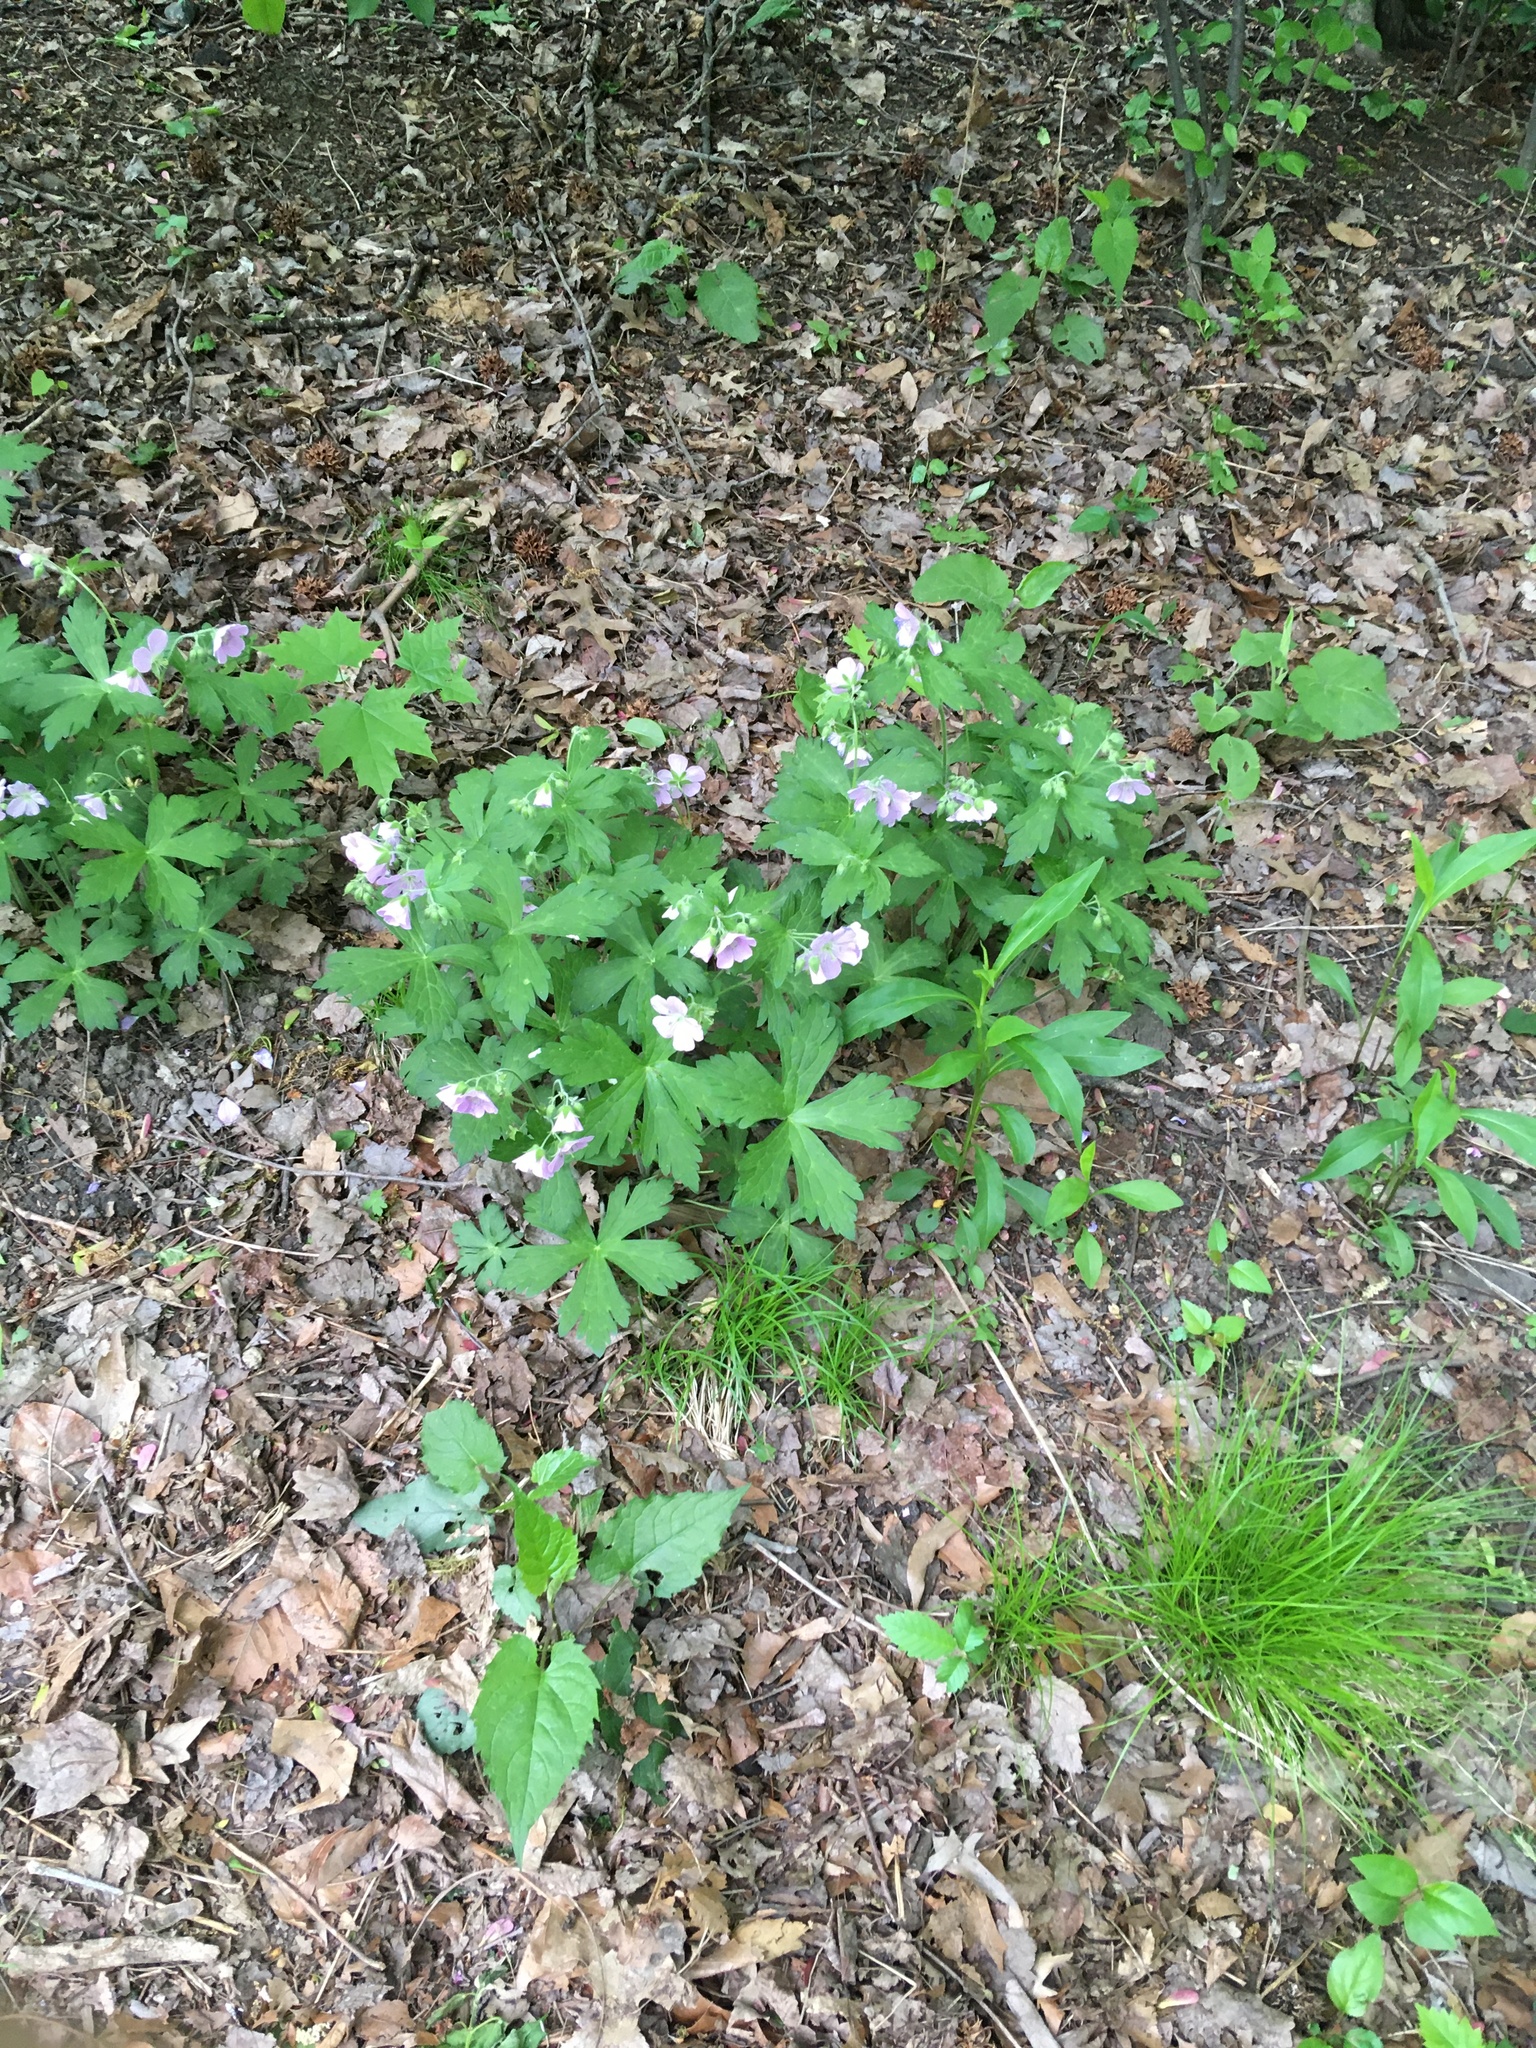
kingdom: Plantae
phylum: Tracheophyta
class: Magnoliopsida
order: Geraniales
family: Geraniaceae
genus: Geranium
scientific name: Geranium maculatum
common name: Spotted geranium
